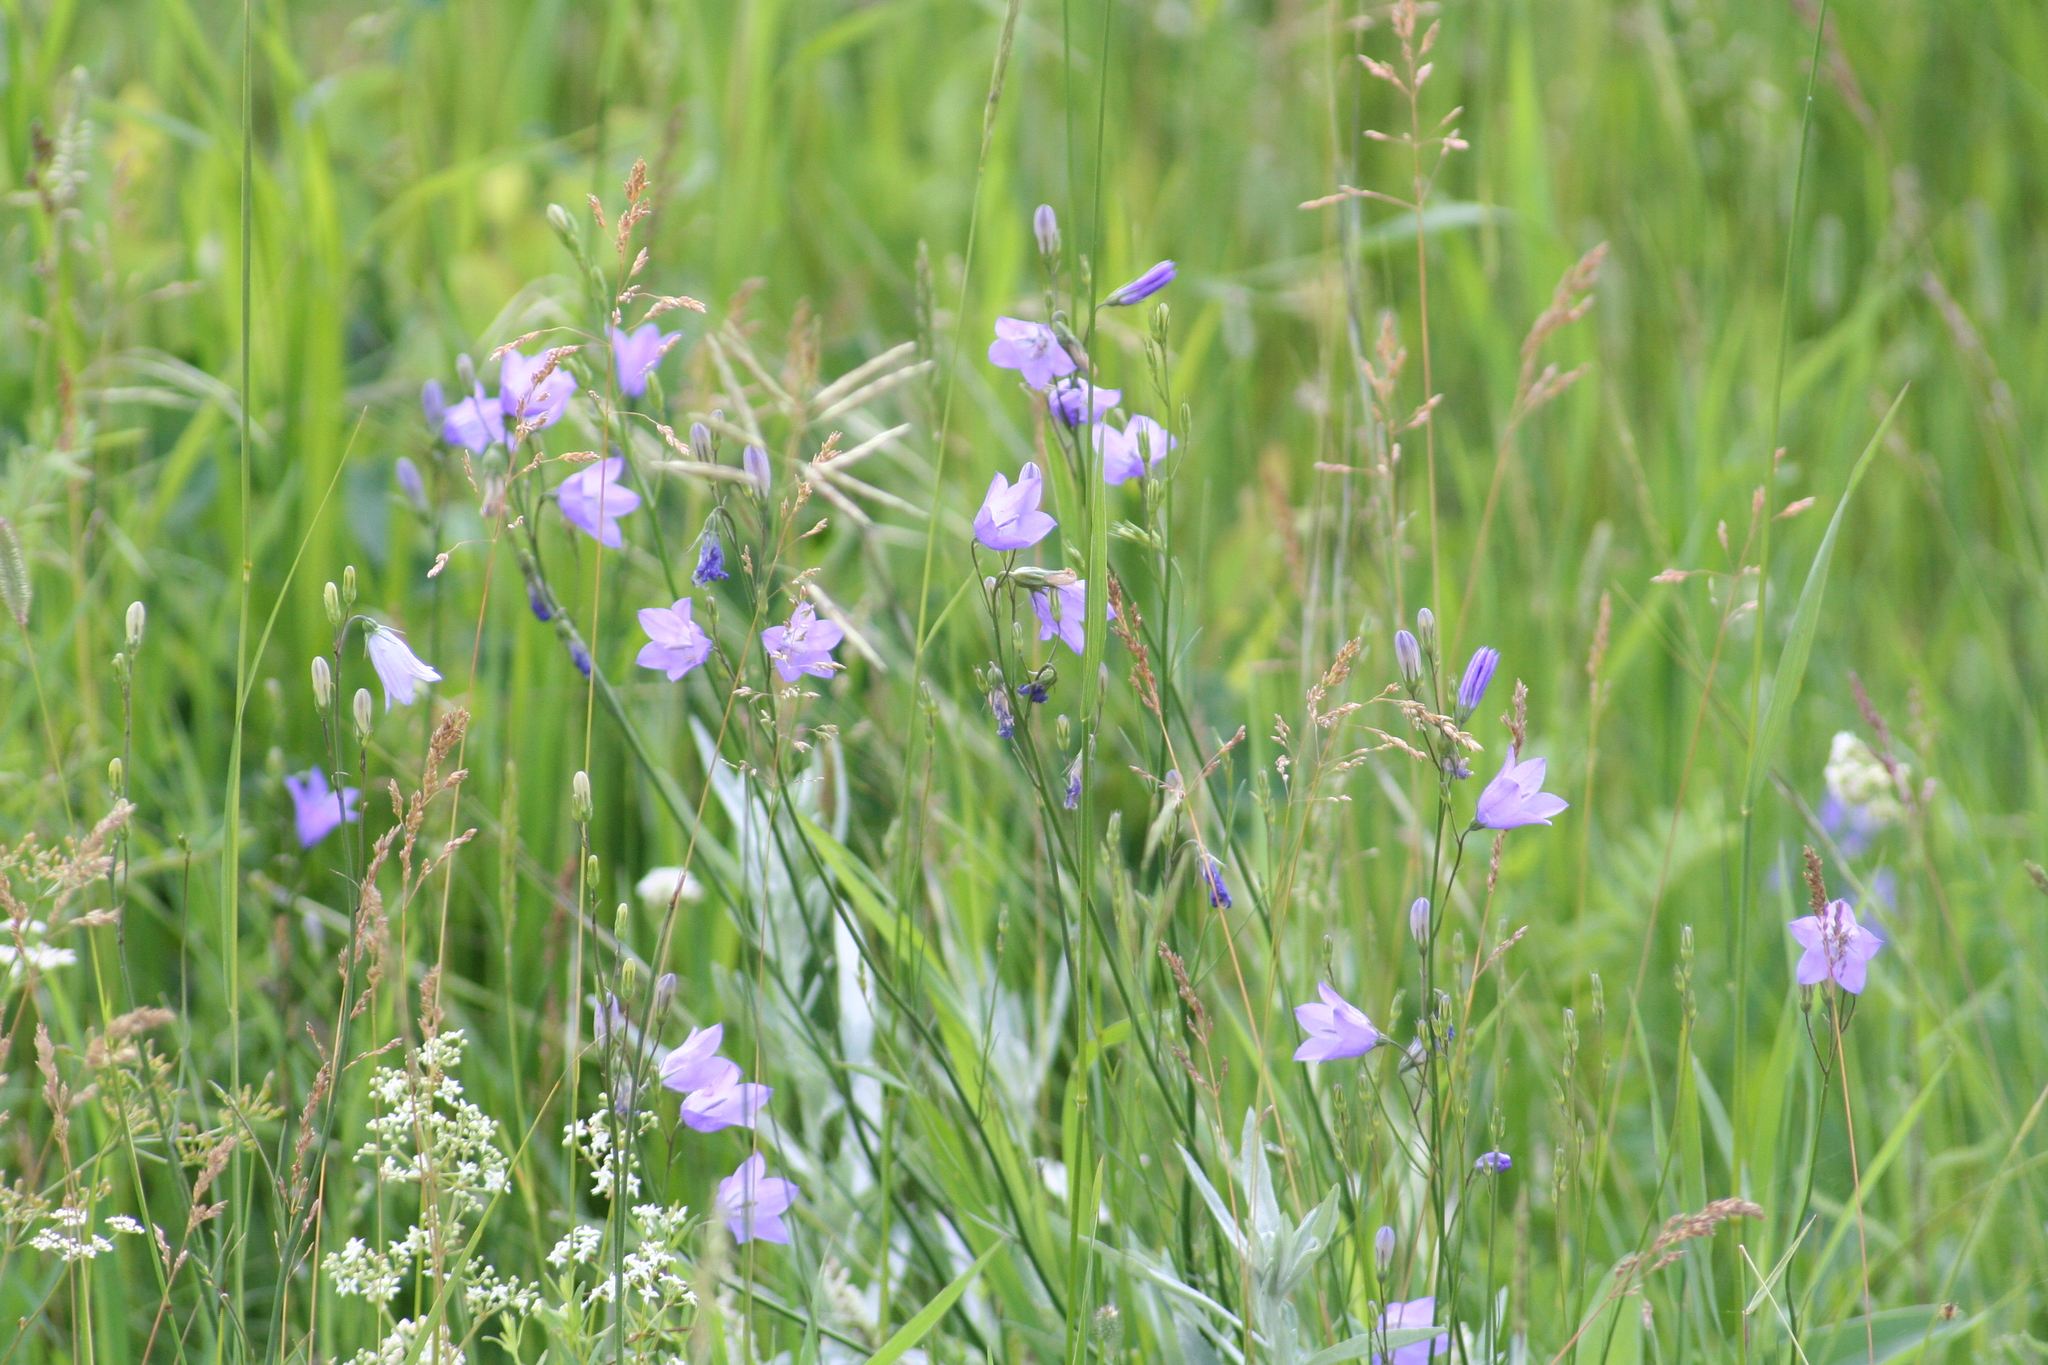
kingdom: Plantae
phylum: Tracheophyta
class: Magnoliopsida
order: Asterales
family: Campanulaceae
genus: Campanula
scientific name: Campanula petiolata
